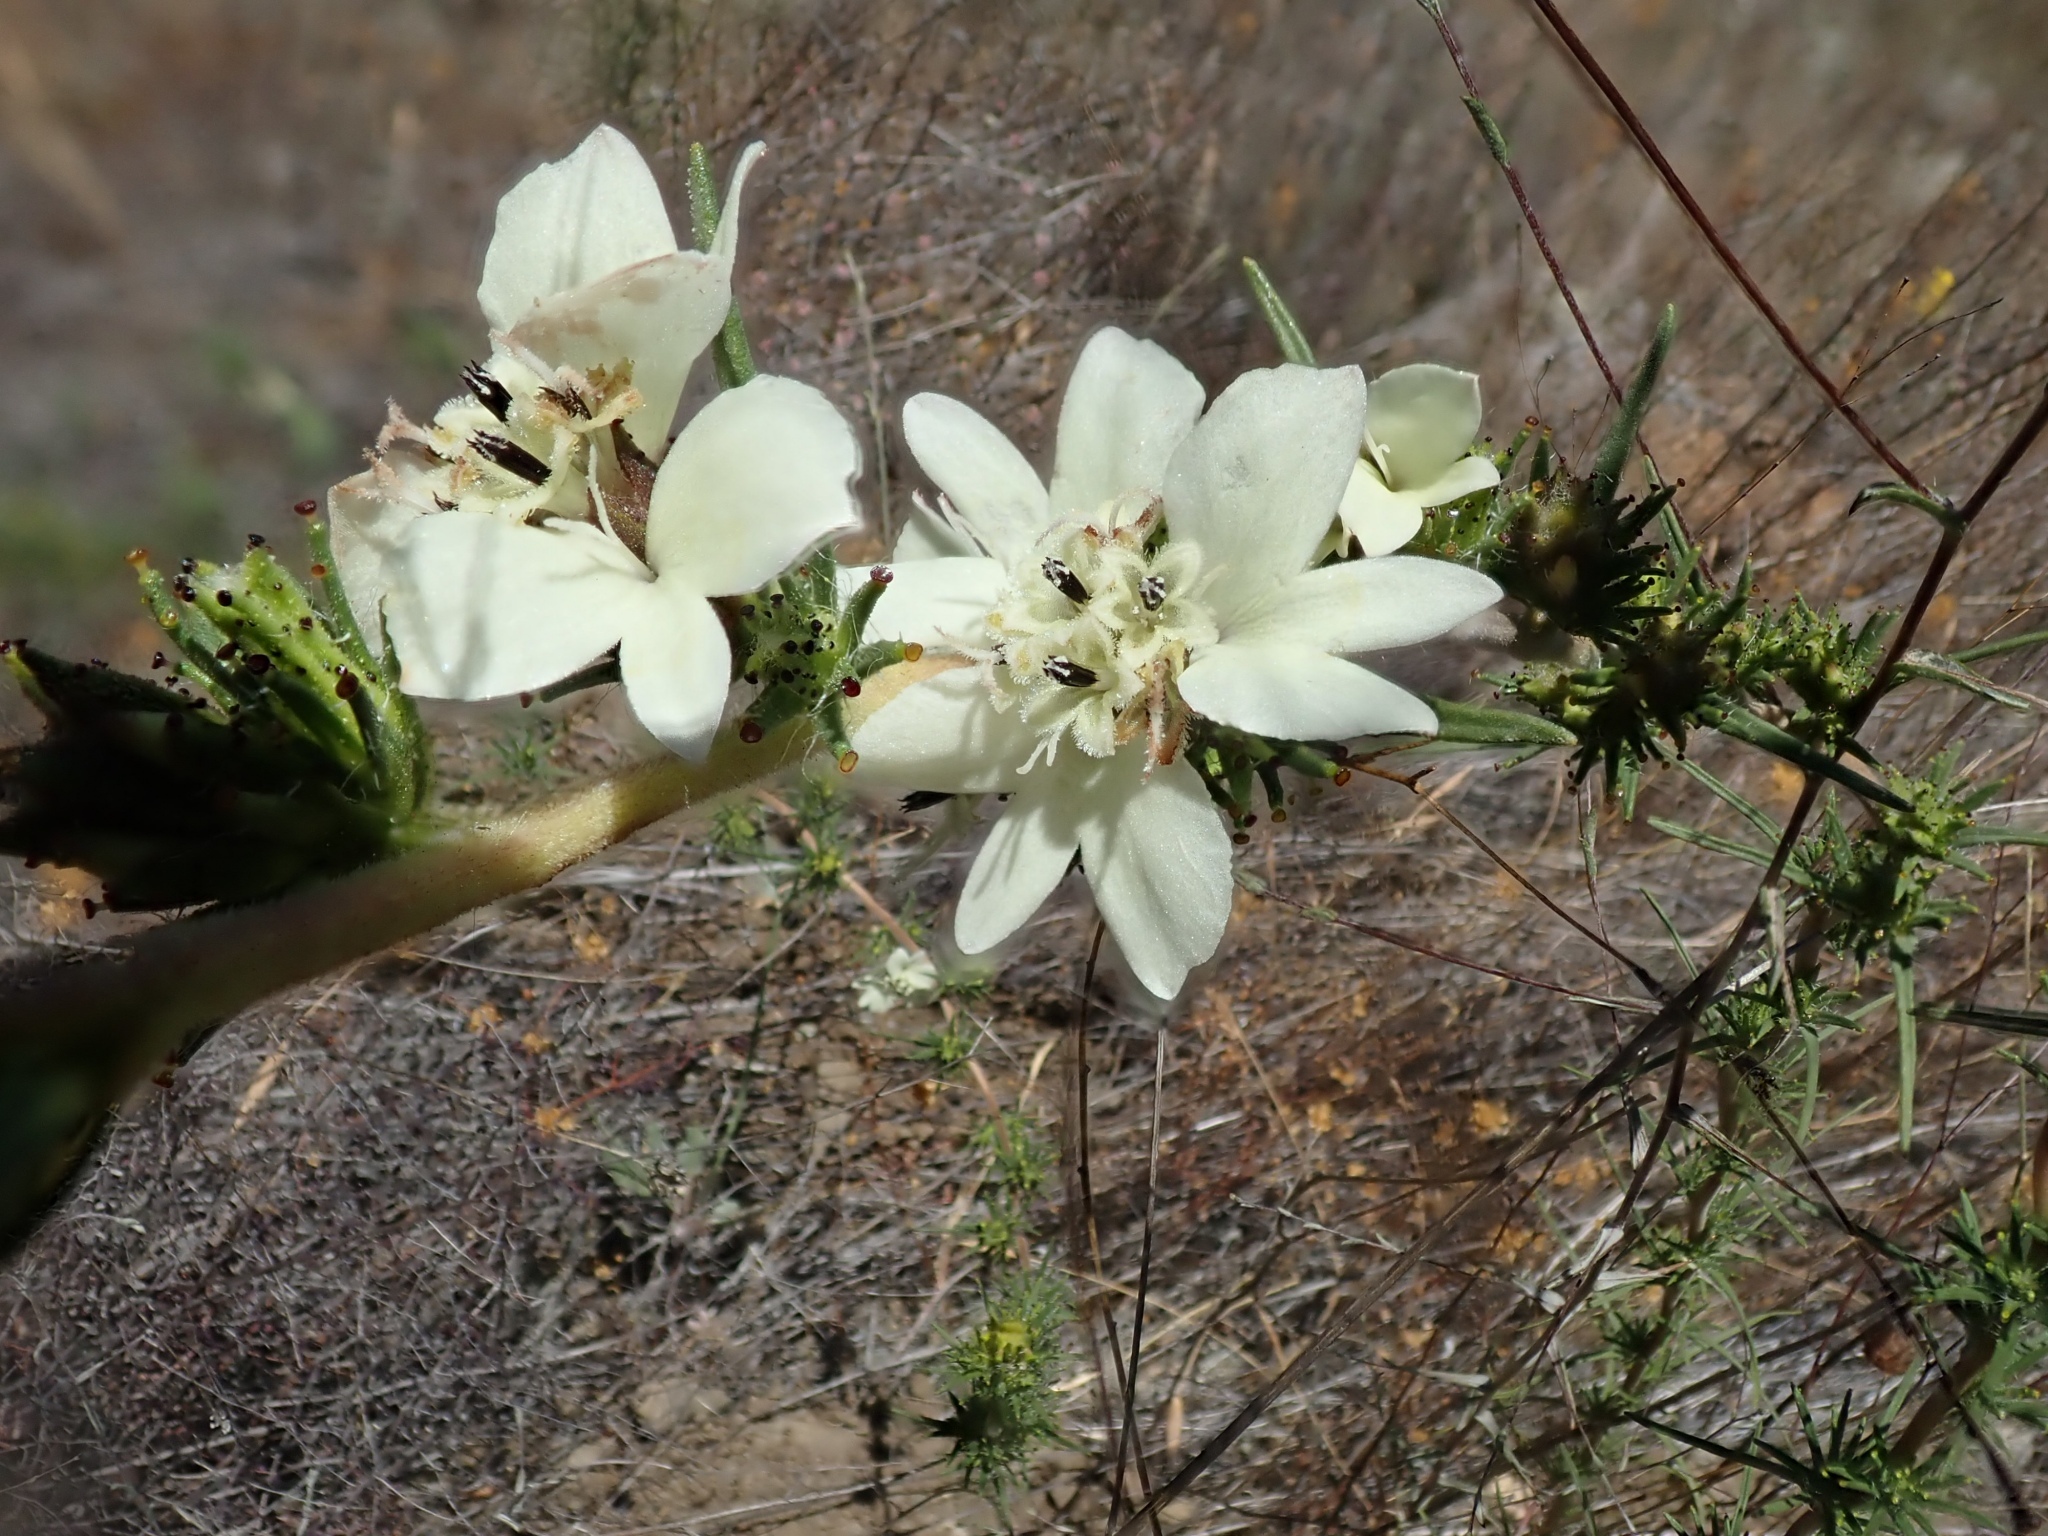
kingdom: Plantae
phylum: Tracheophyta
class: Magnoliopsida
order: Asterales
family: Asteraceae
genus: Calycadenia
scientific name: Calycadenia multiglandulosa
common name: Sticky calycadenia
